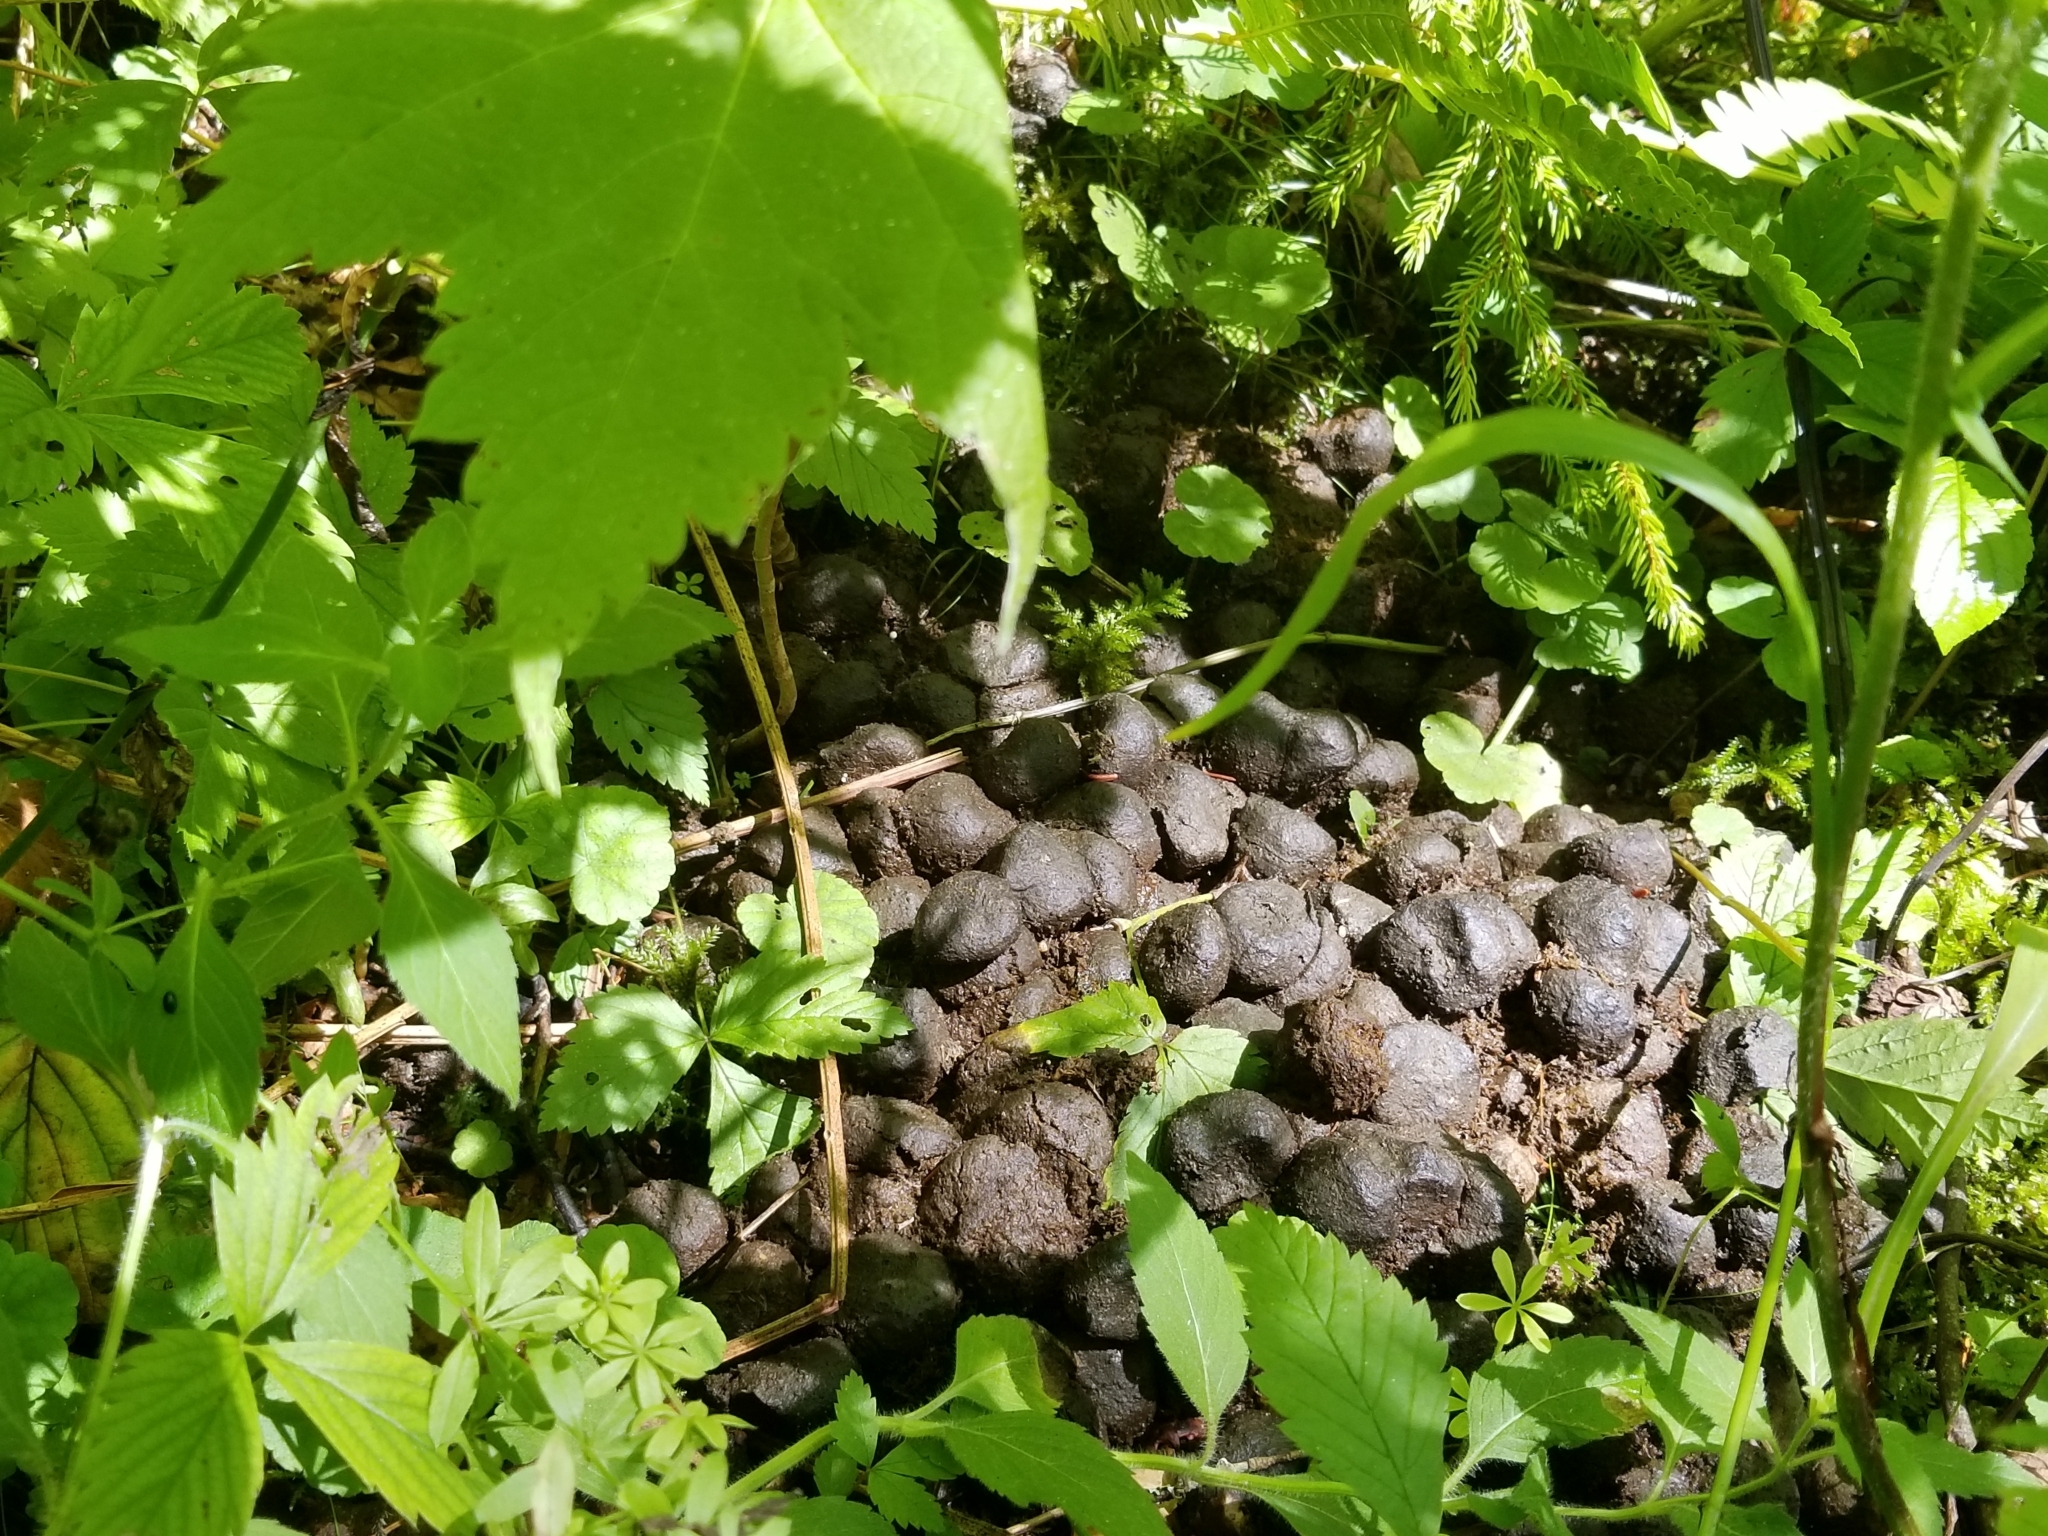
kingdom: Animalia
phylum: Chordata
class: Mammalia
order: Artiodactyla
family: Cervidae
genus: Alces
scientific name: Alces alces
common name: Moose
